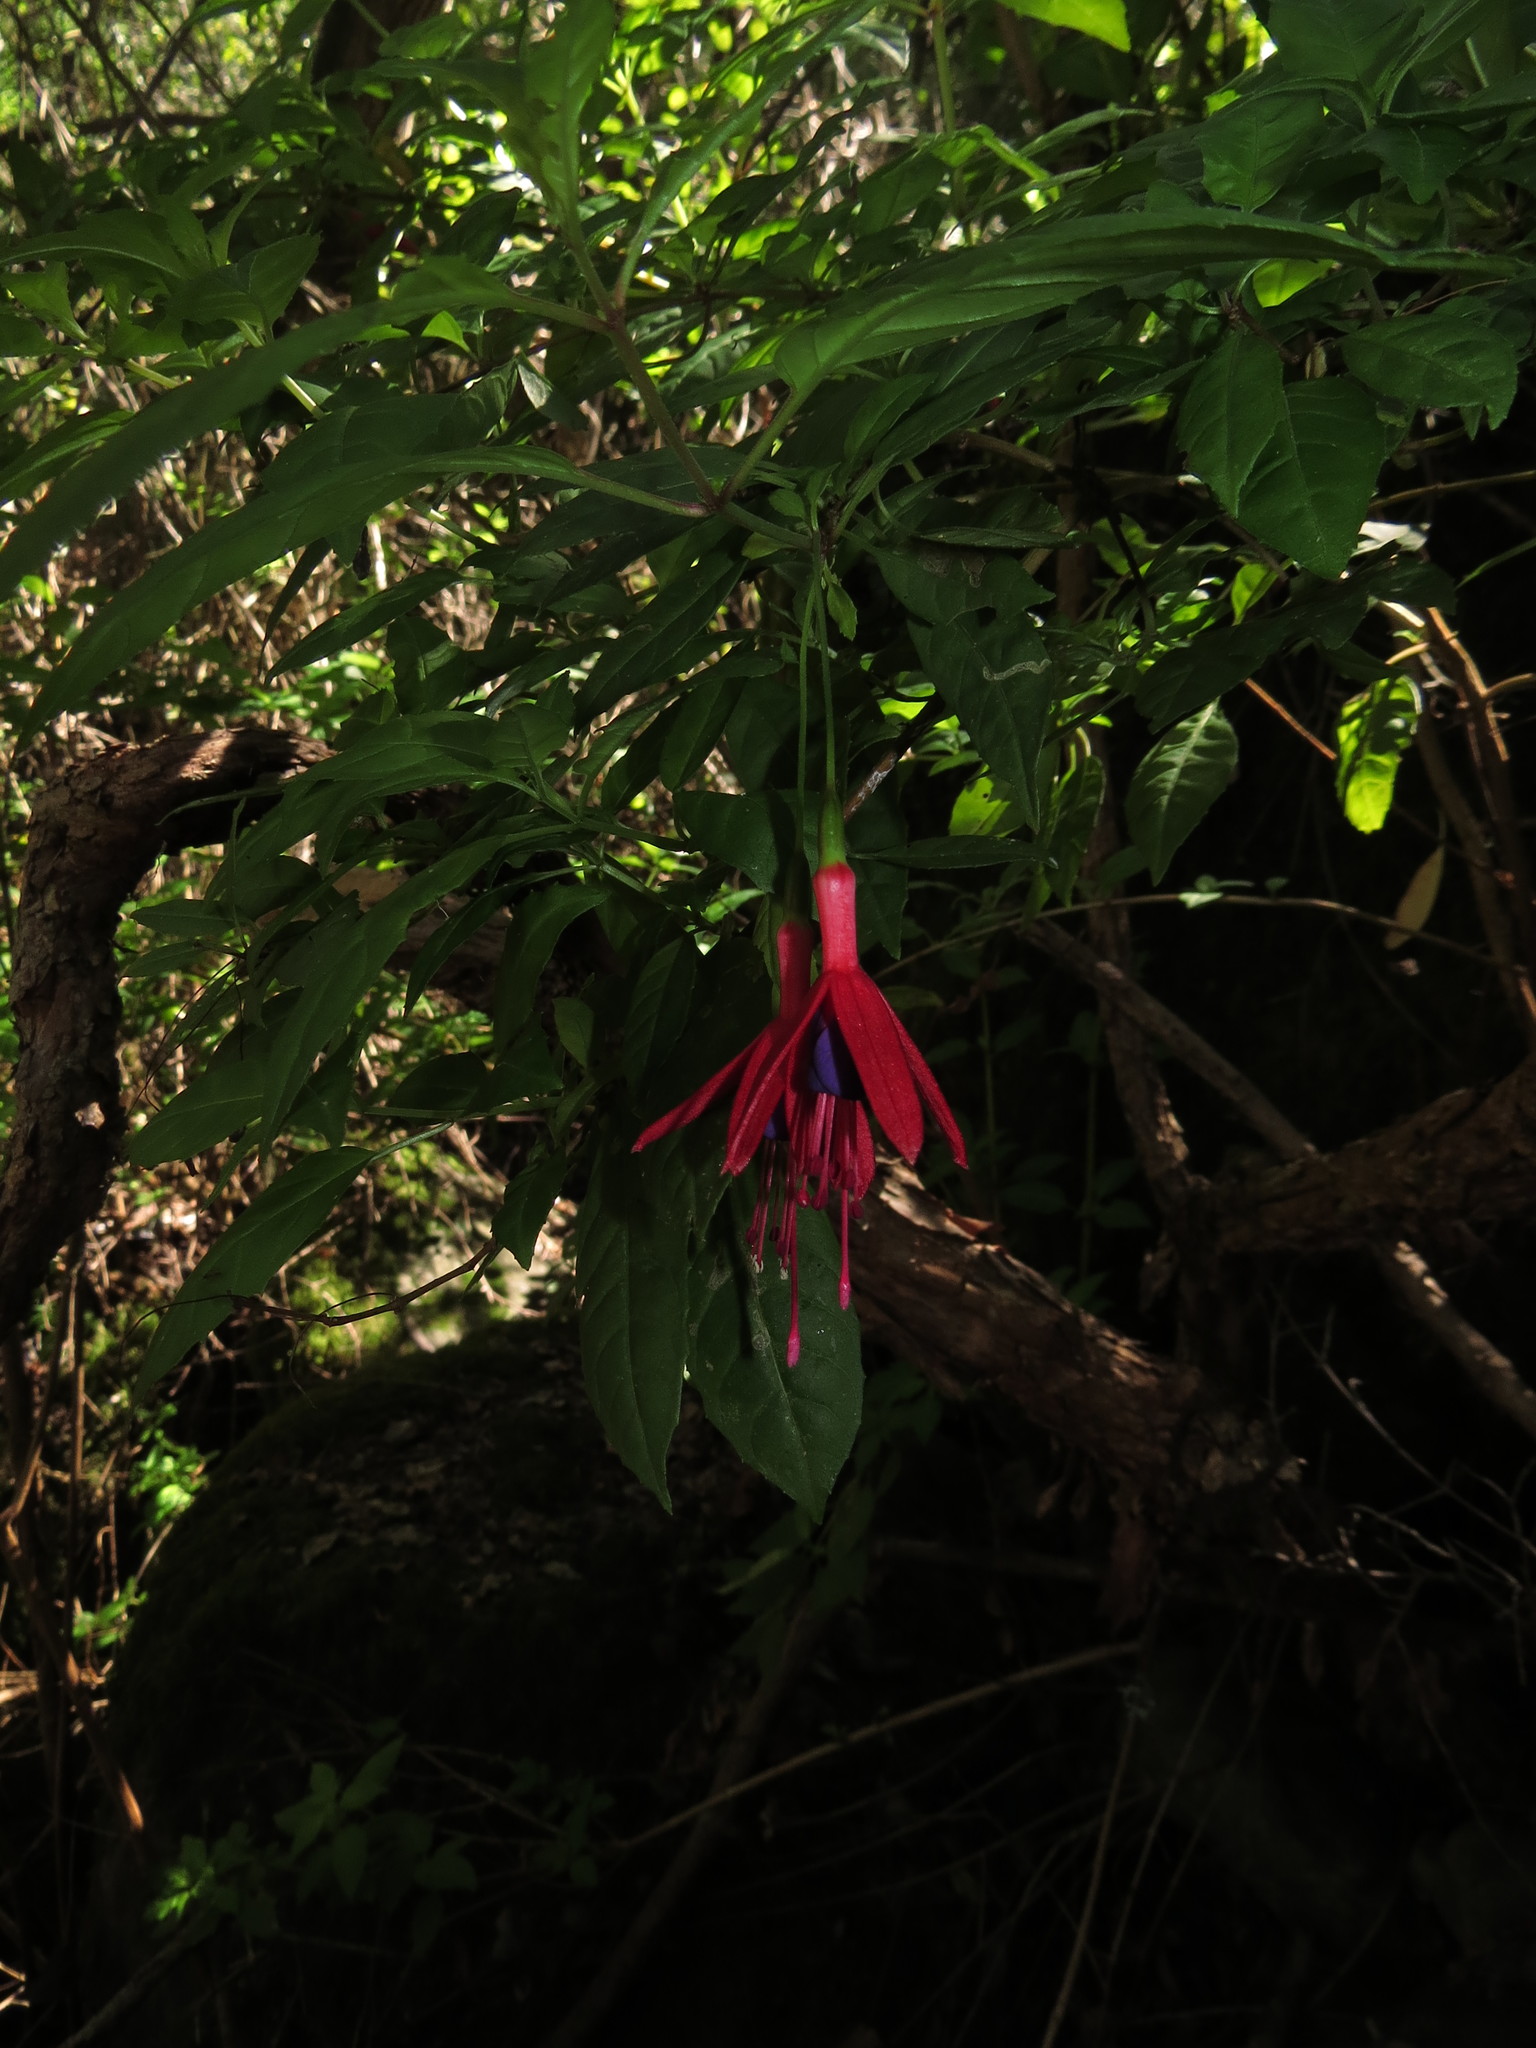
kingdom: Plantae
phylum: Tracheophyta
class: Magnoliopsida
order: Myrtales
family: Onagraceae
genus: Fuchsia
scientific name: Fuchsia magellanica
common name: Hardy fuchsia
